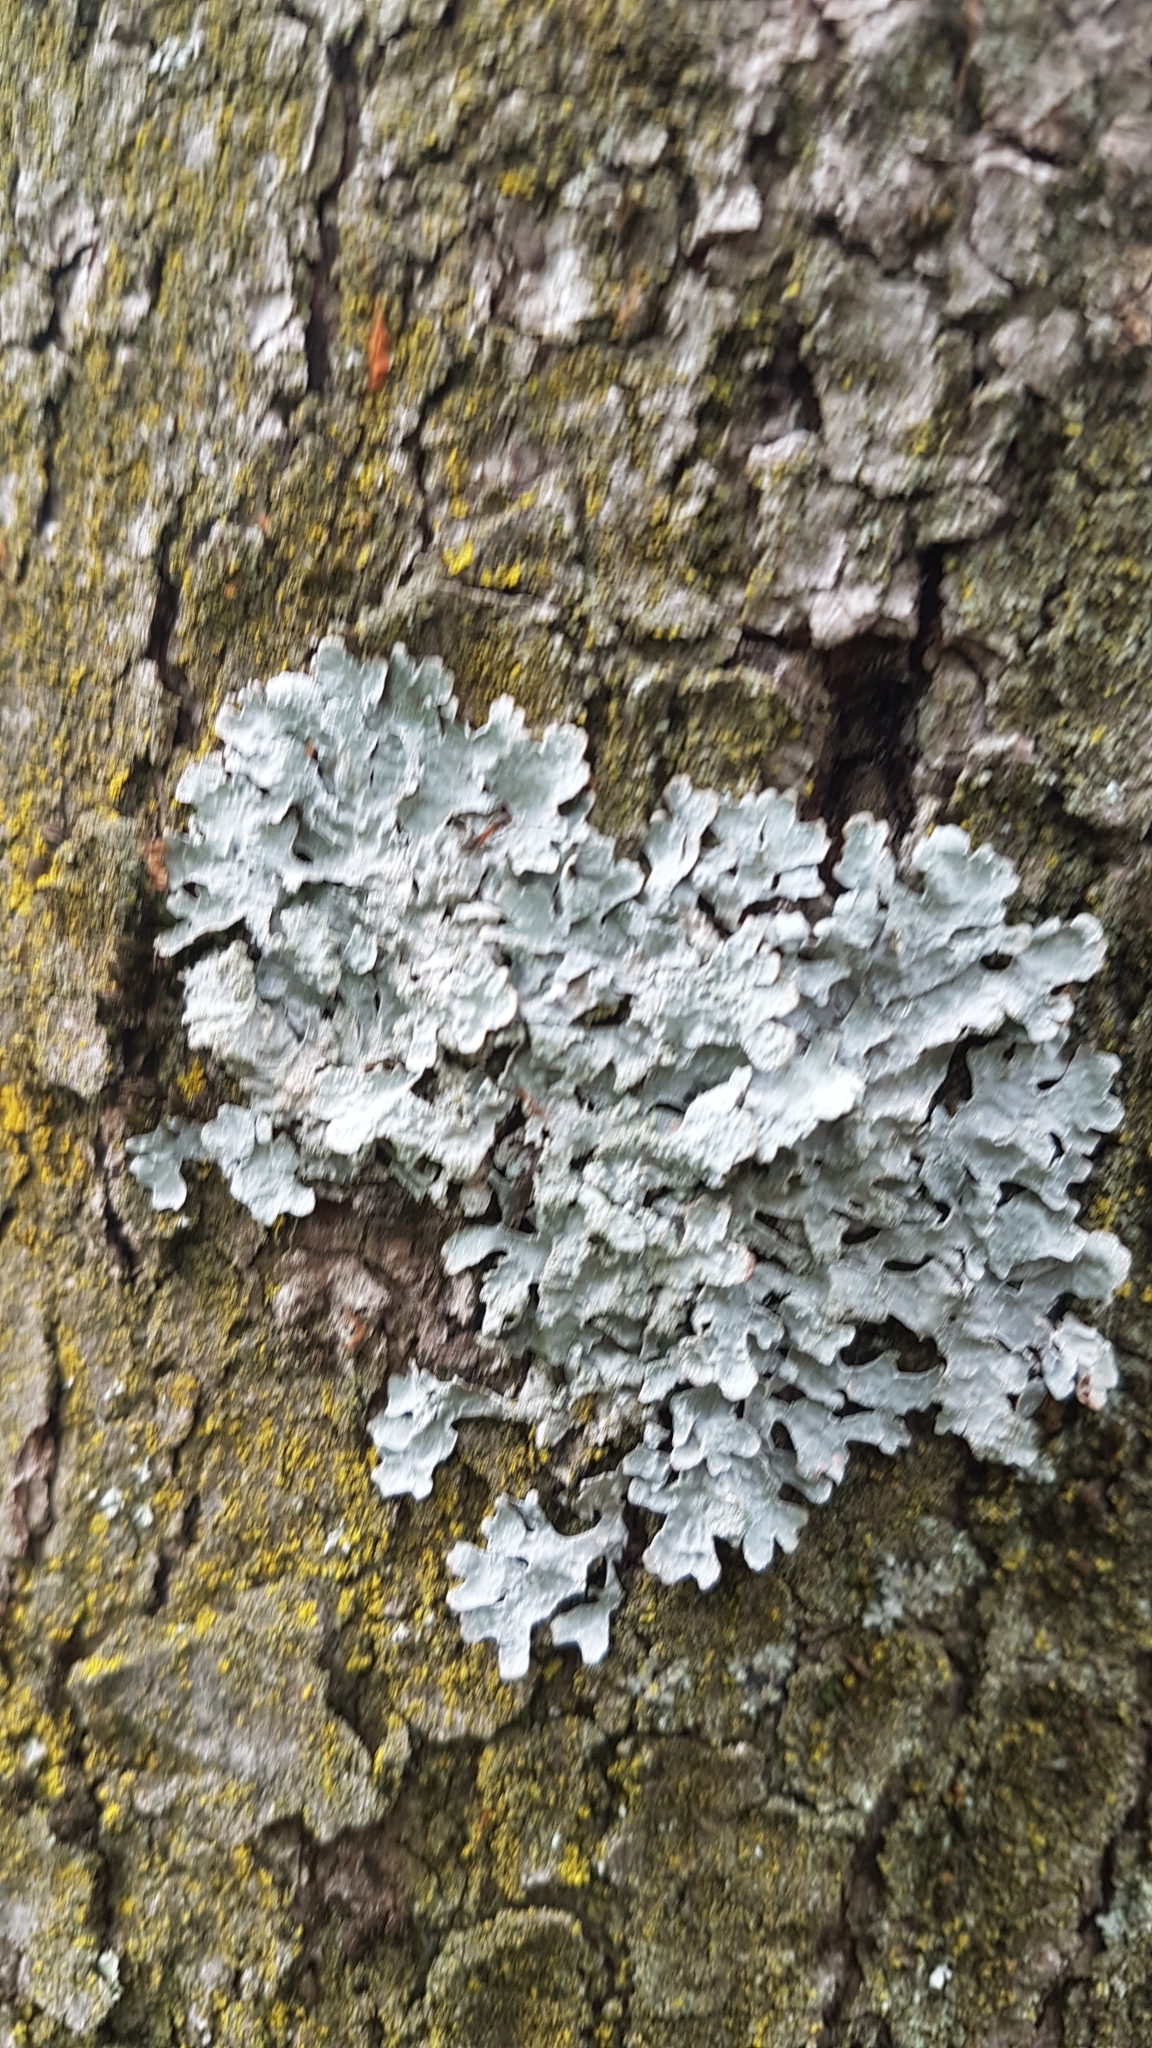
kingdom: Fungi
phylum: Ascomycota
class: Lecanoromycetes
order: Lecanorales
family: Parmeliaceae
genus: Parmelia
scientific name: Parmelia sulcata
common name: Netted shield lichen
